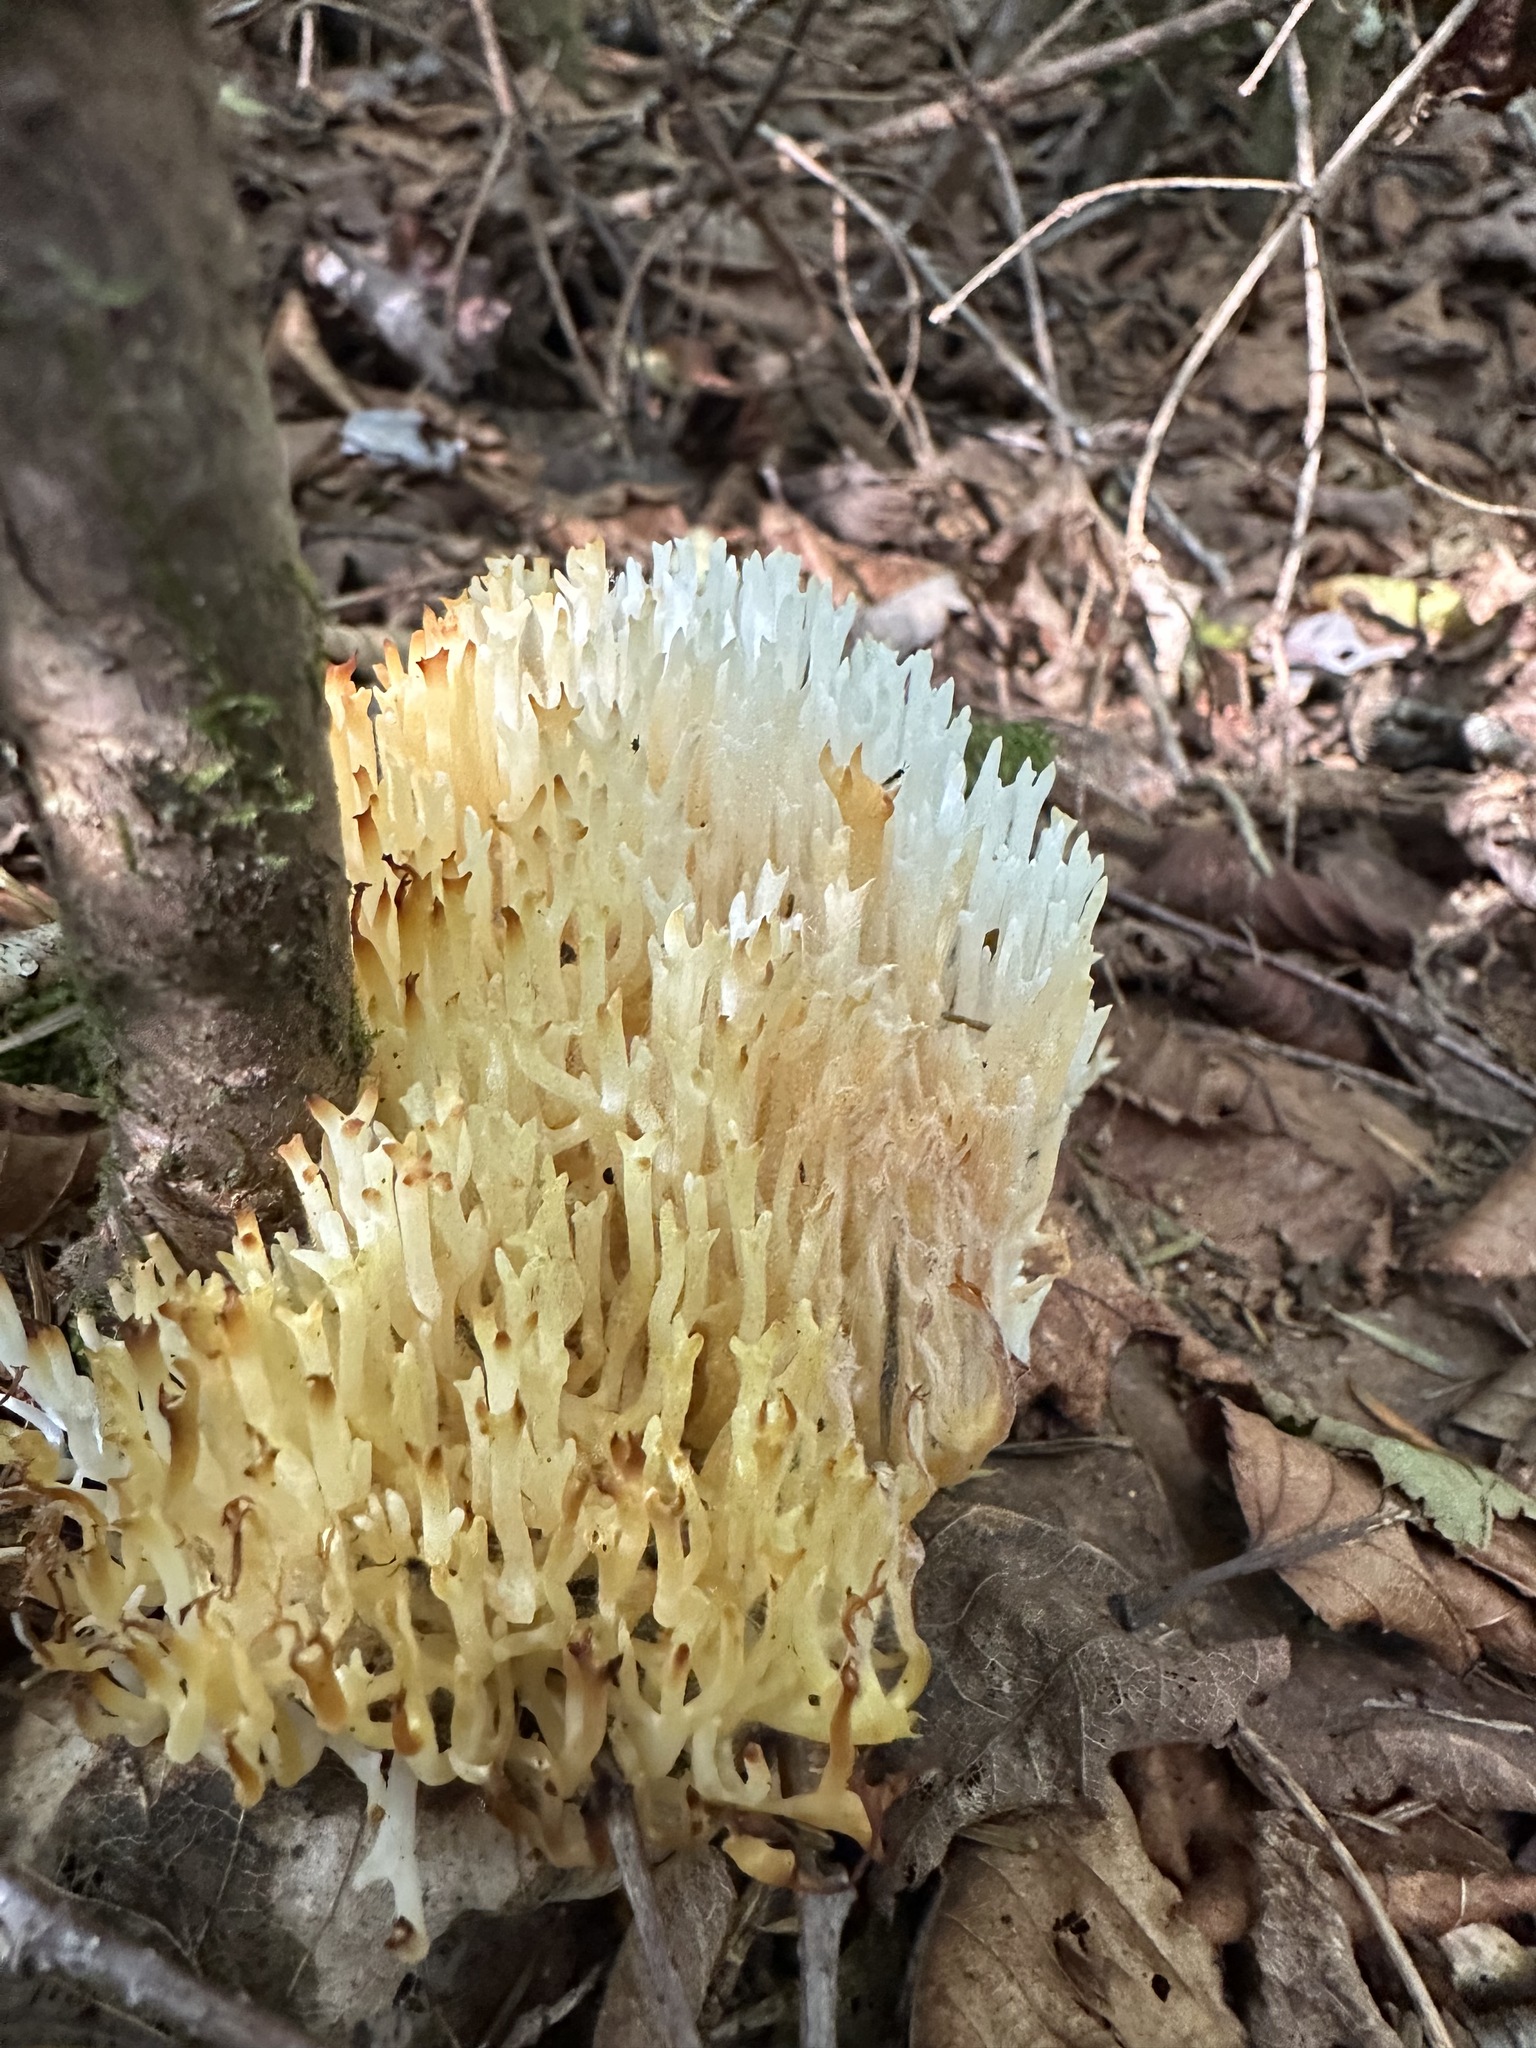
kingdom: Fungi
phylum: Basidiomycota
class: Agaricomycetes
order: Agaricales
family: Clavariaceae
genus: Ramariopsis
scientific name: Ramariopsis kunzei
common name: Ivory coral
